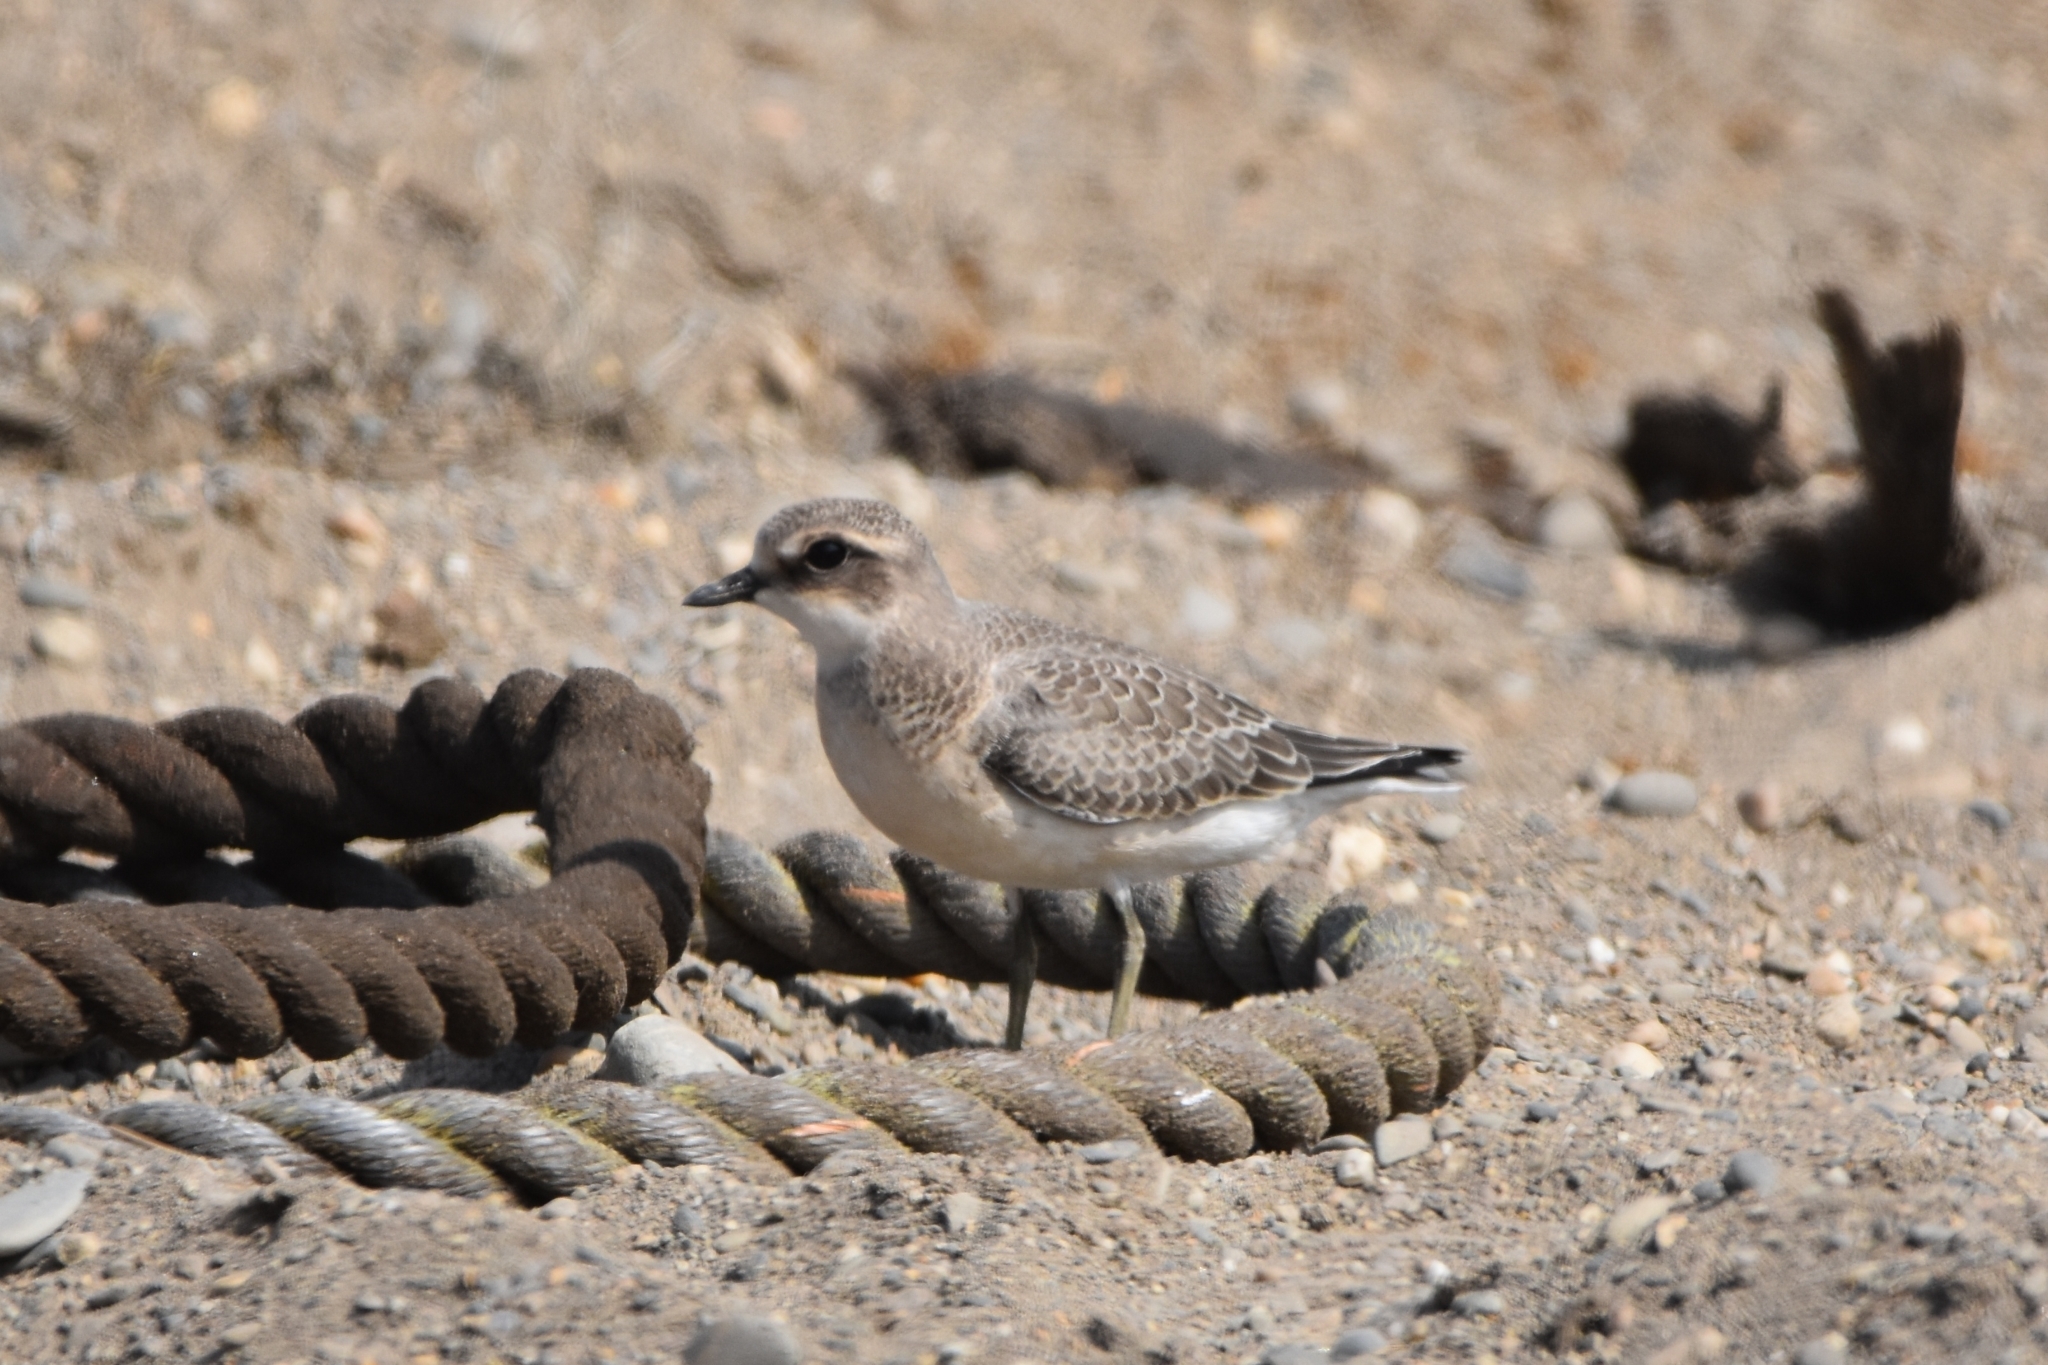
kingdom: Animalia
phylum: Chordata
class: Aves
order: Charadriiformes
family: Charadriidae
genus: Anarhynchus
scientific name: Anarhynchus
